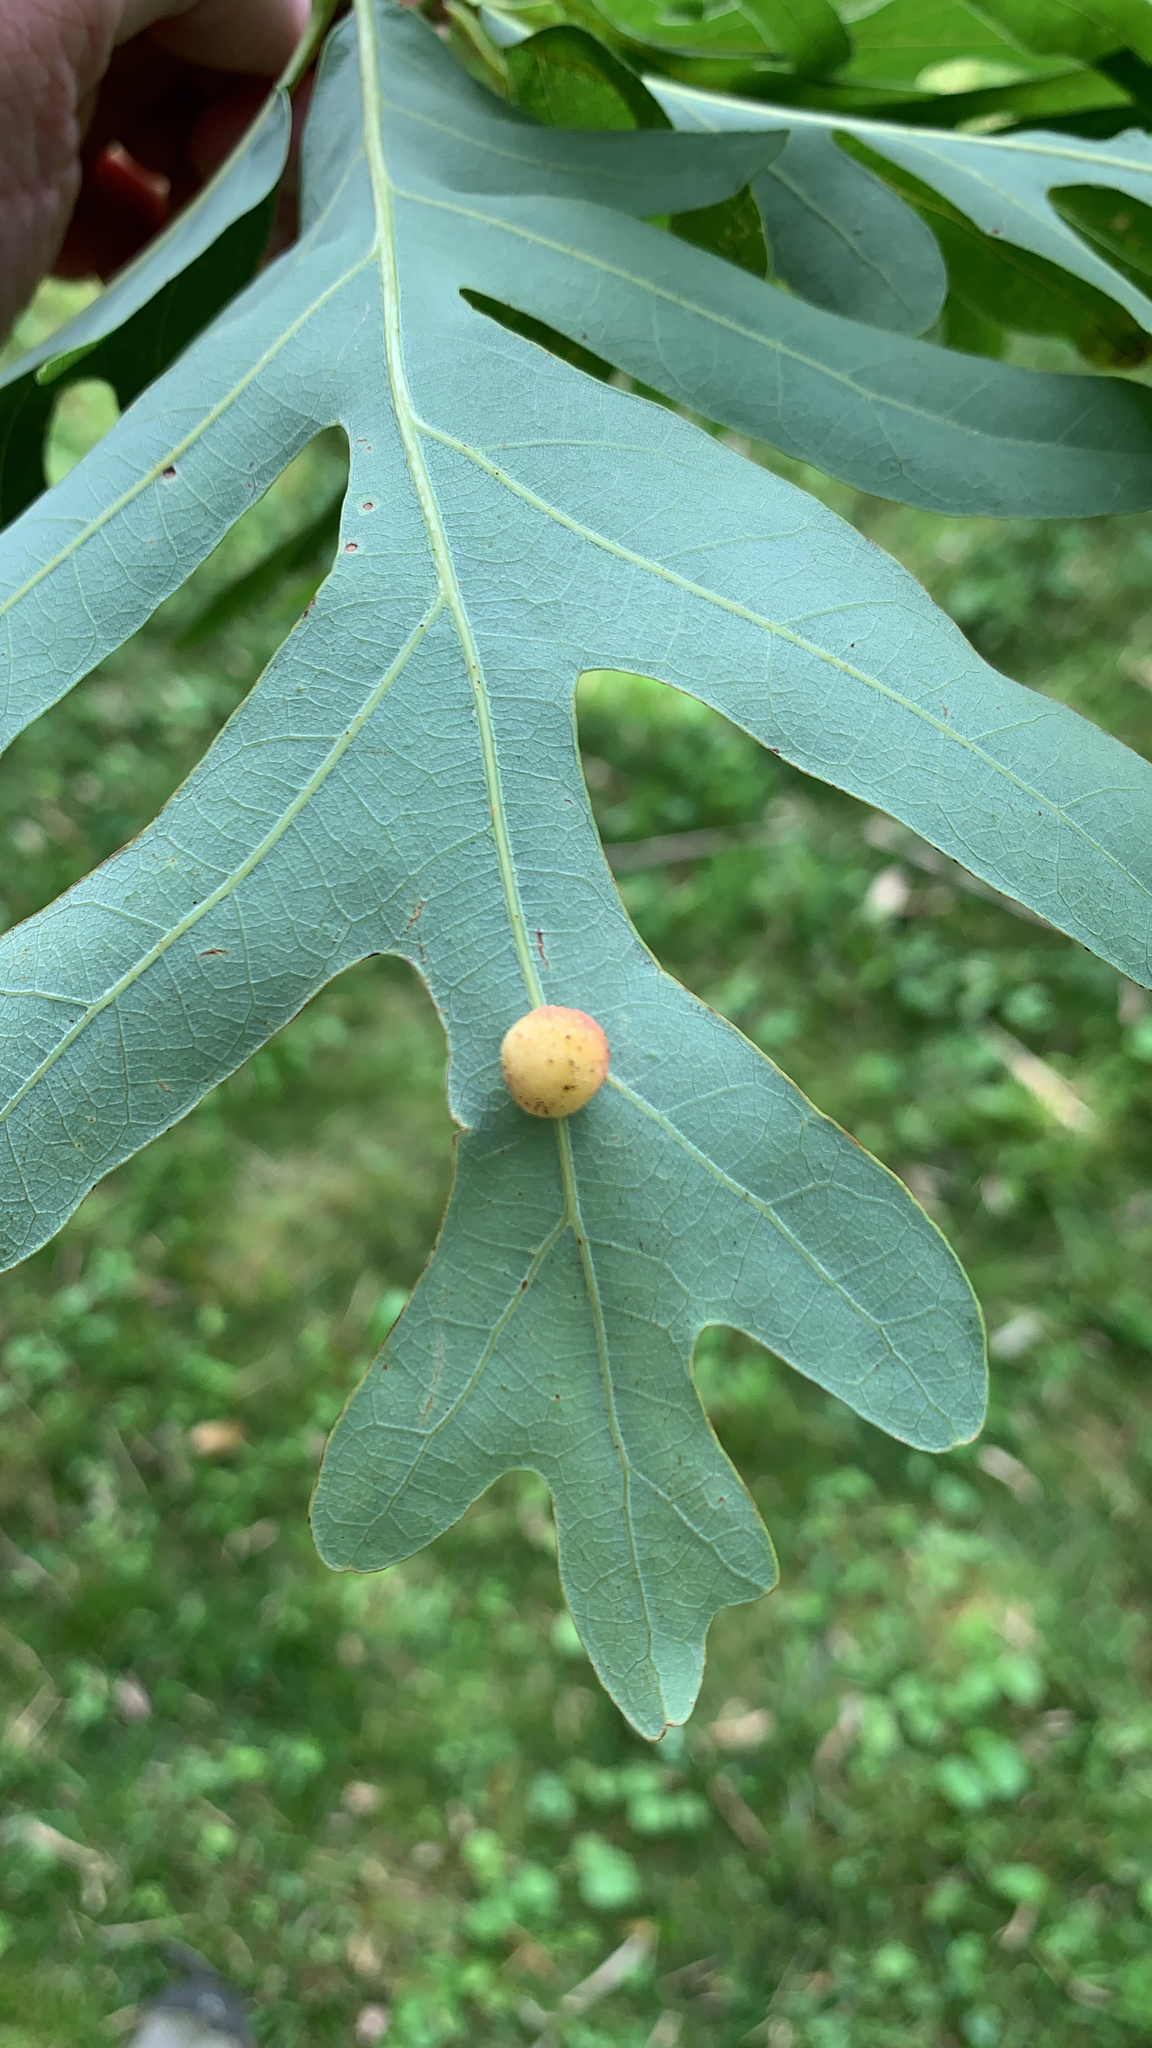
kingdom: Animalia
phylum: Arthropoda
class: Insecta
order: Hymenoptera
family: Cynipidae
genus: Acraspis
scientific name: Acraspis
